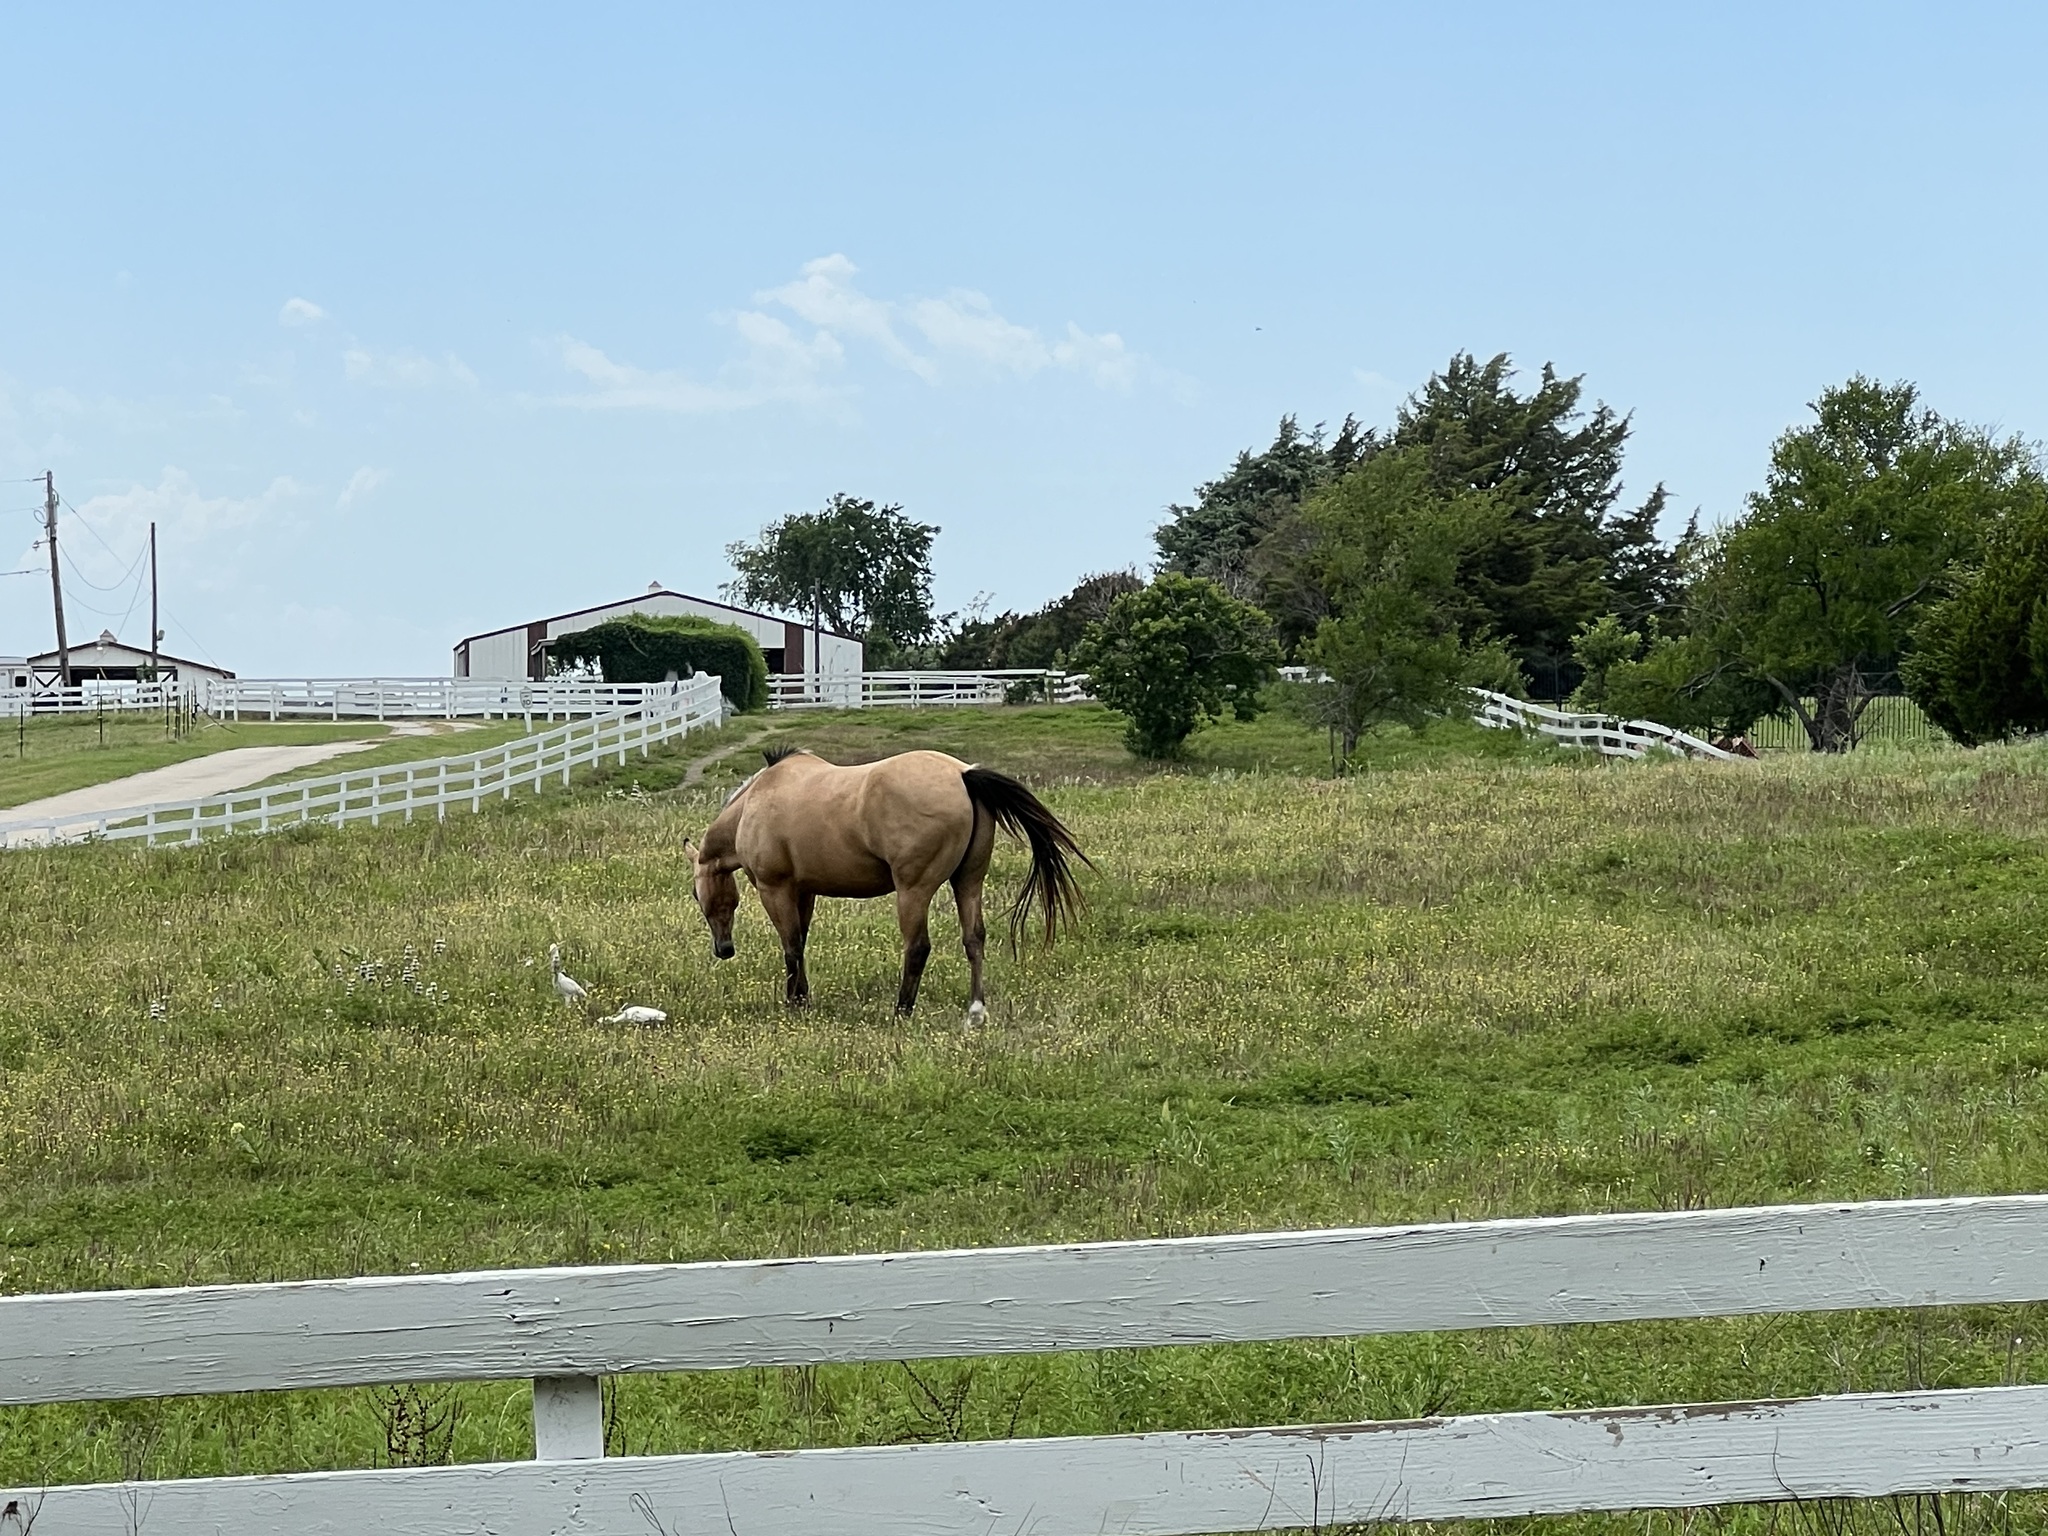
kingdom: Animalia
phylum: Chordata
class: Aves
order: Pelecaniformes
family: Ardeidae
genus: Bubulcus
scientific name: Bubulcus ibis
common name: Cattle egret
